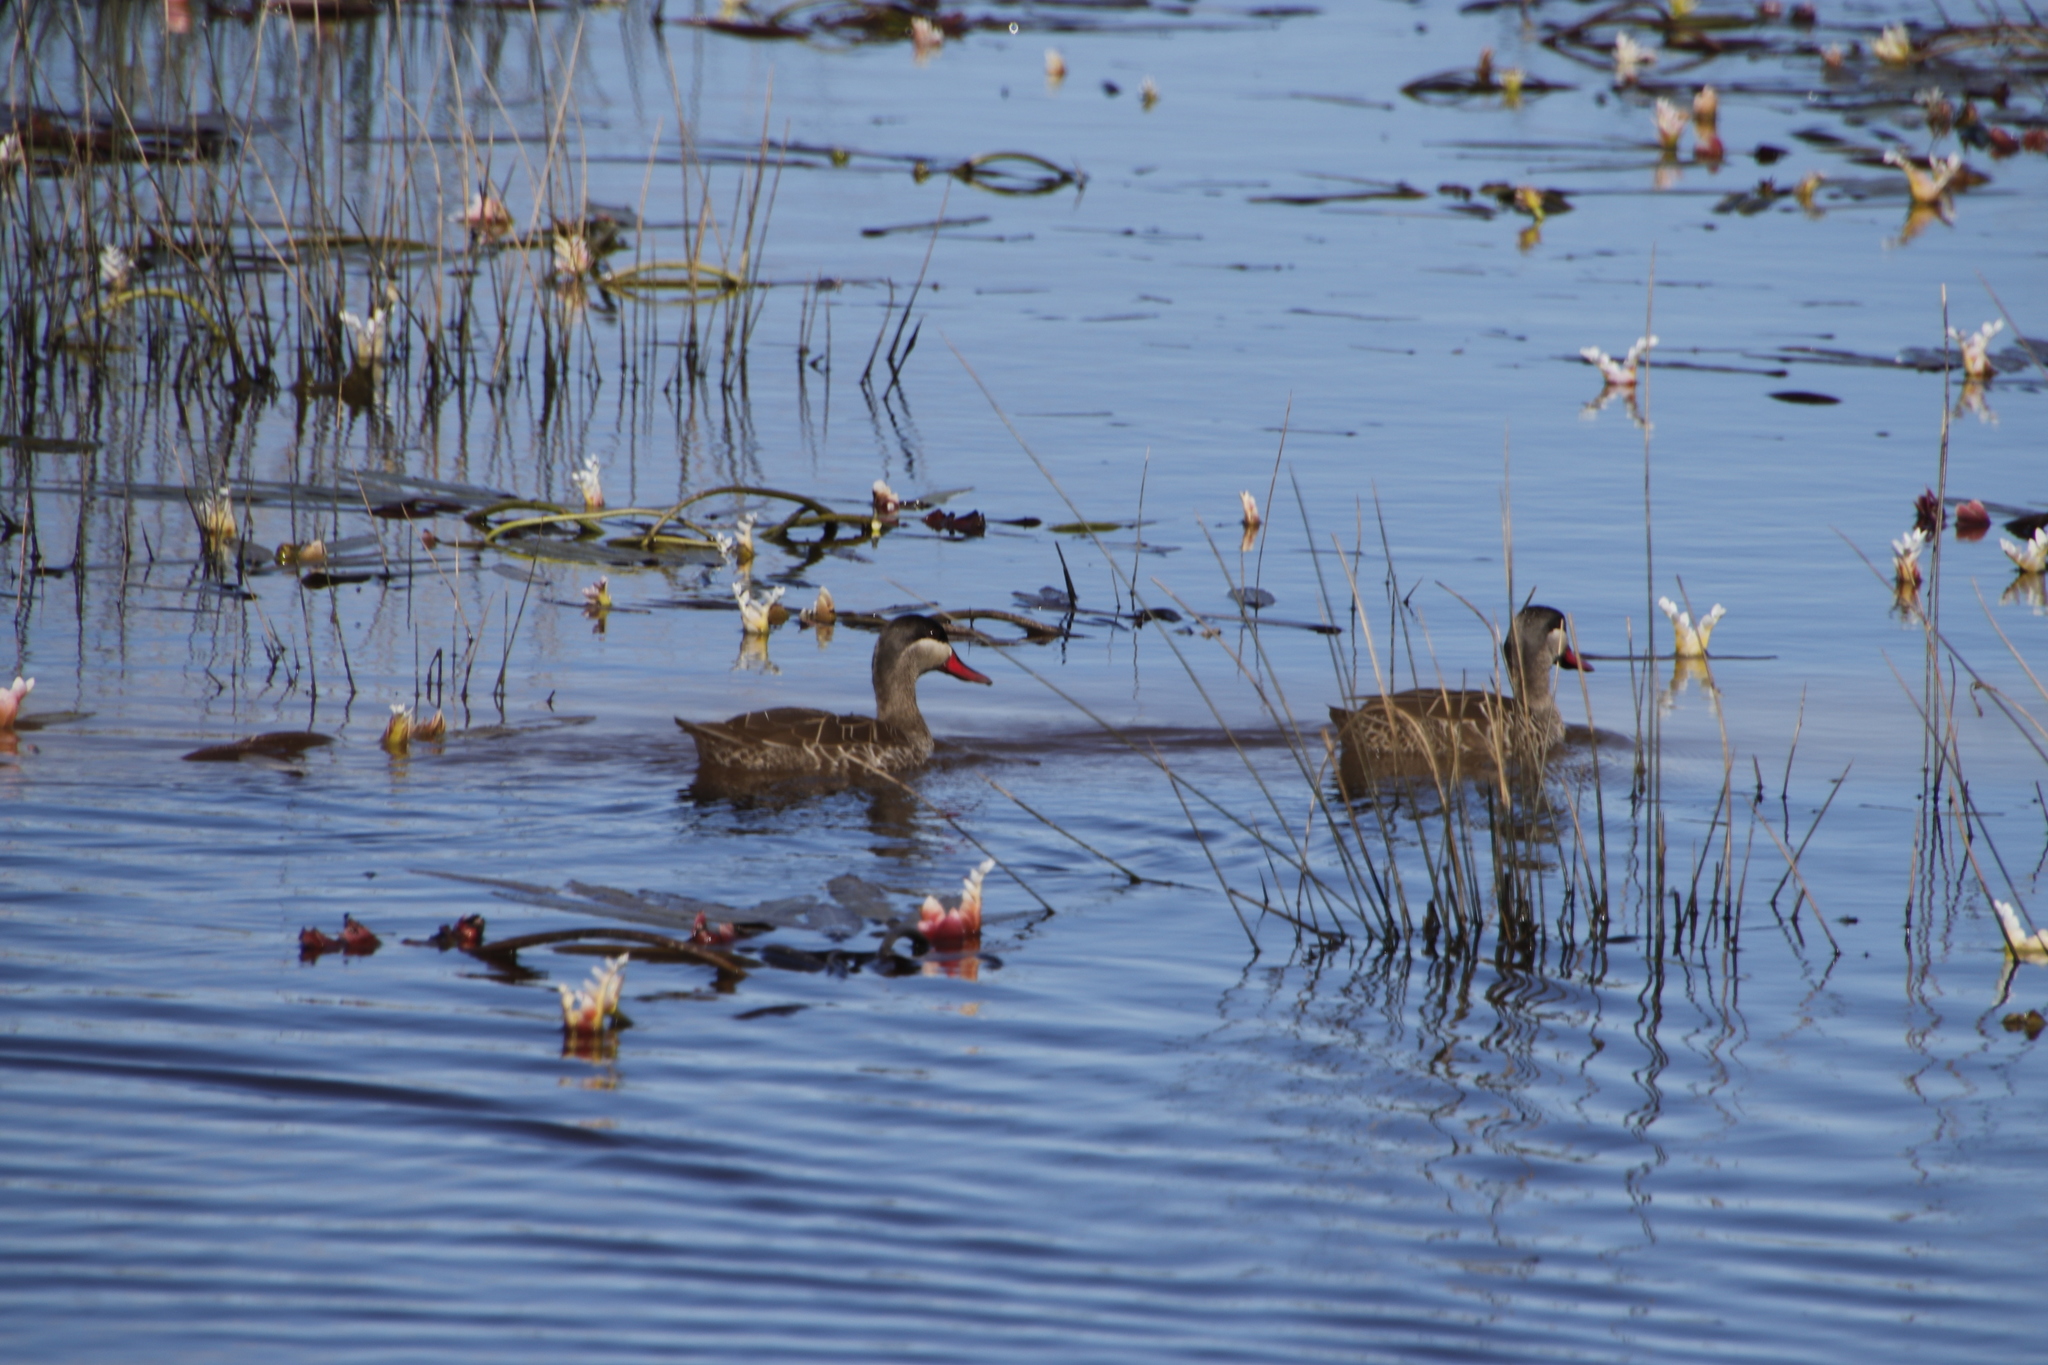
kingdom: Animalia
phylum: Chordata
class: Aves
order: Anseriformes
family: Anatidae
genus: Anas
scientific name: Anas erythrorhyncha
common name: Red-billed teal
